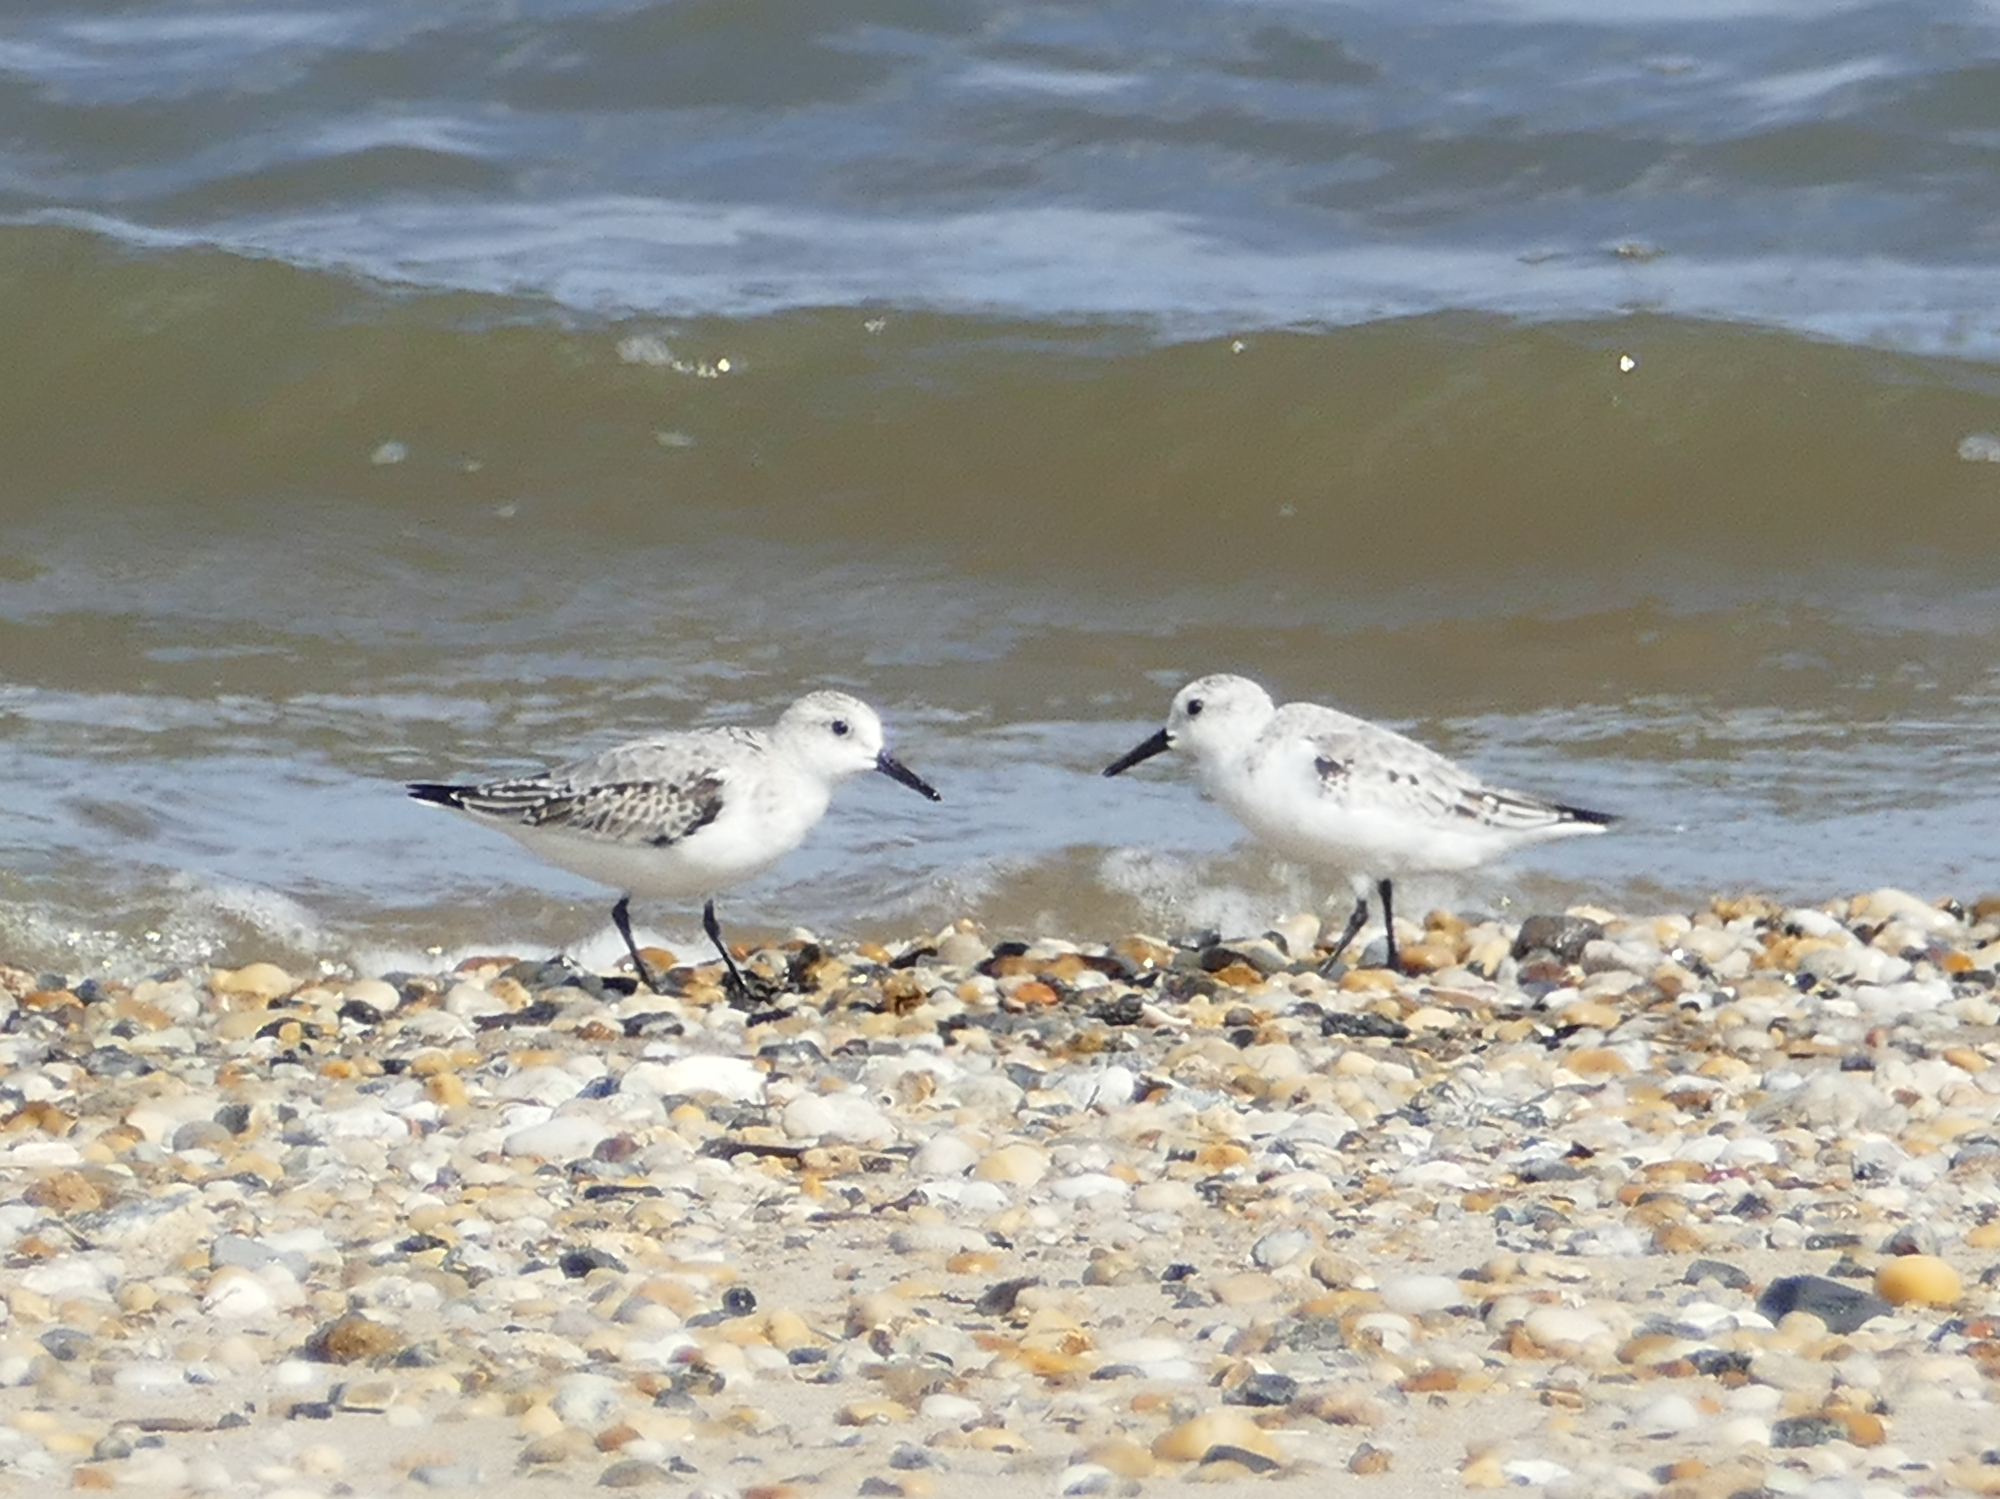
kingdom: Animalia
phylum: Chordata
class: Aves
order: Charadriiformes
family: Scolopacidae
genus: Calidris
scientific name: Calidris alba
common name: Sanderling
